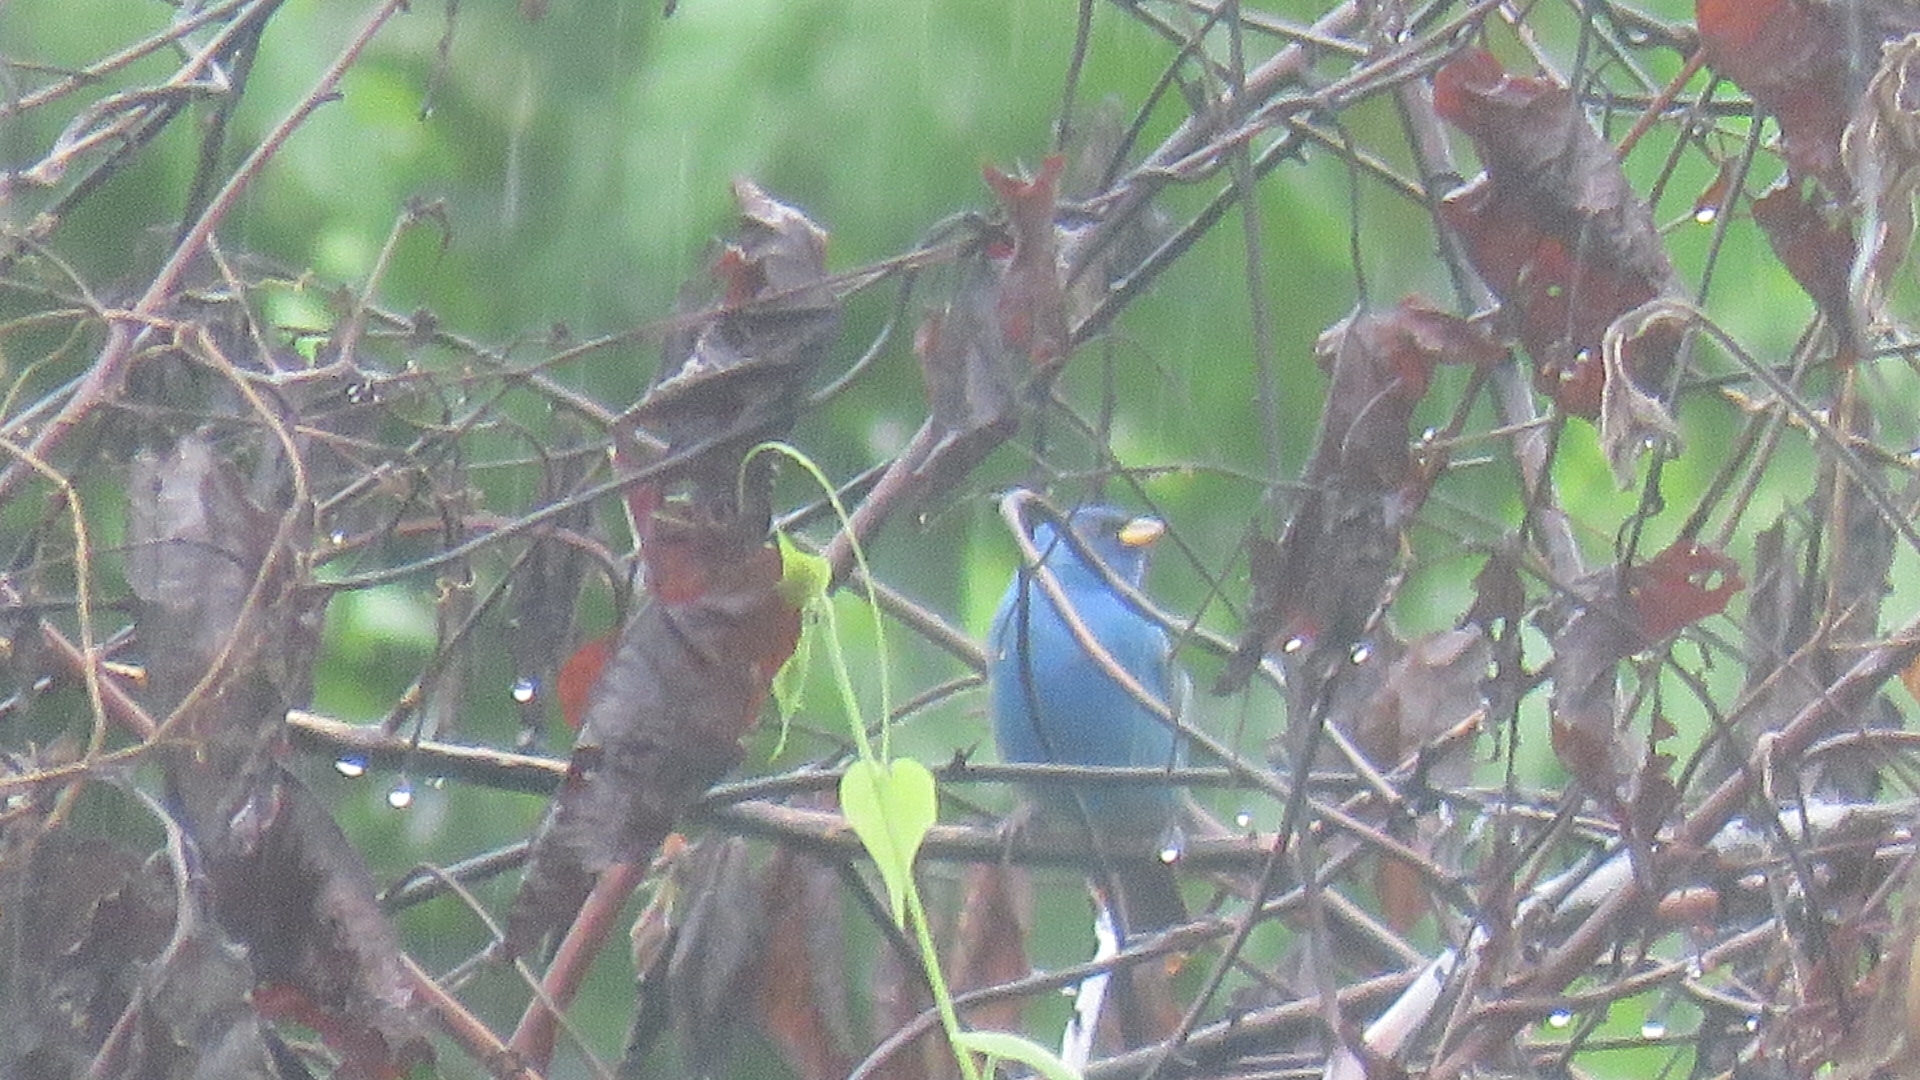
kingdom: Animalia
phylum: Chordata
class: Aves
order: Passeriformes
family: Cardinalidae
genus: Passerina
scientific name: Passerina cyanea
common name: Indigo bunting
